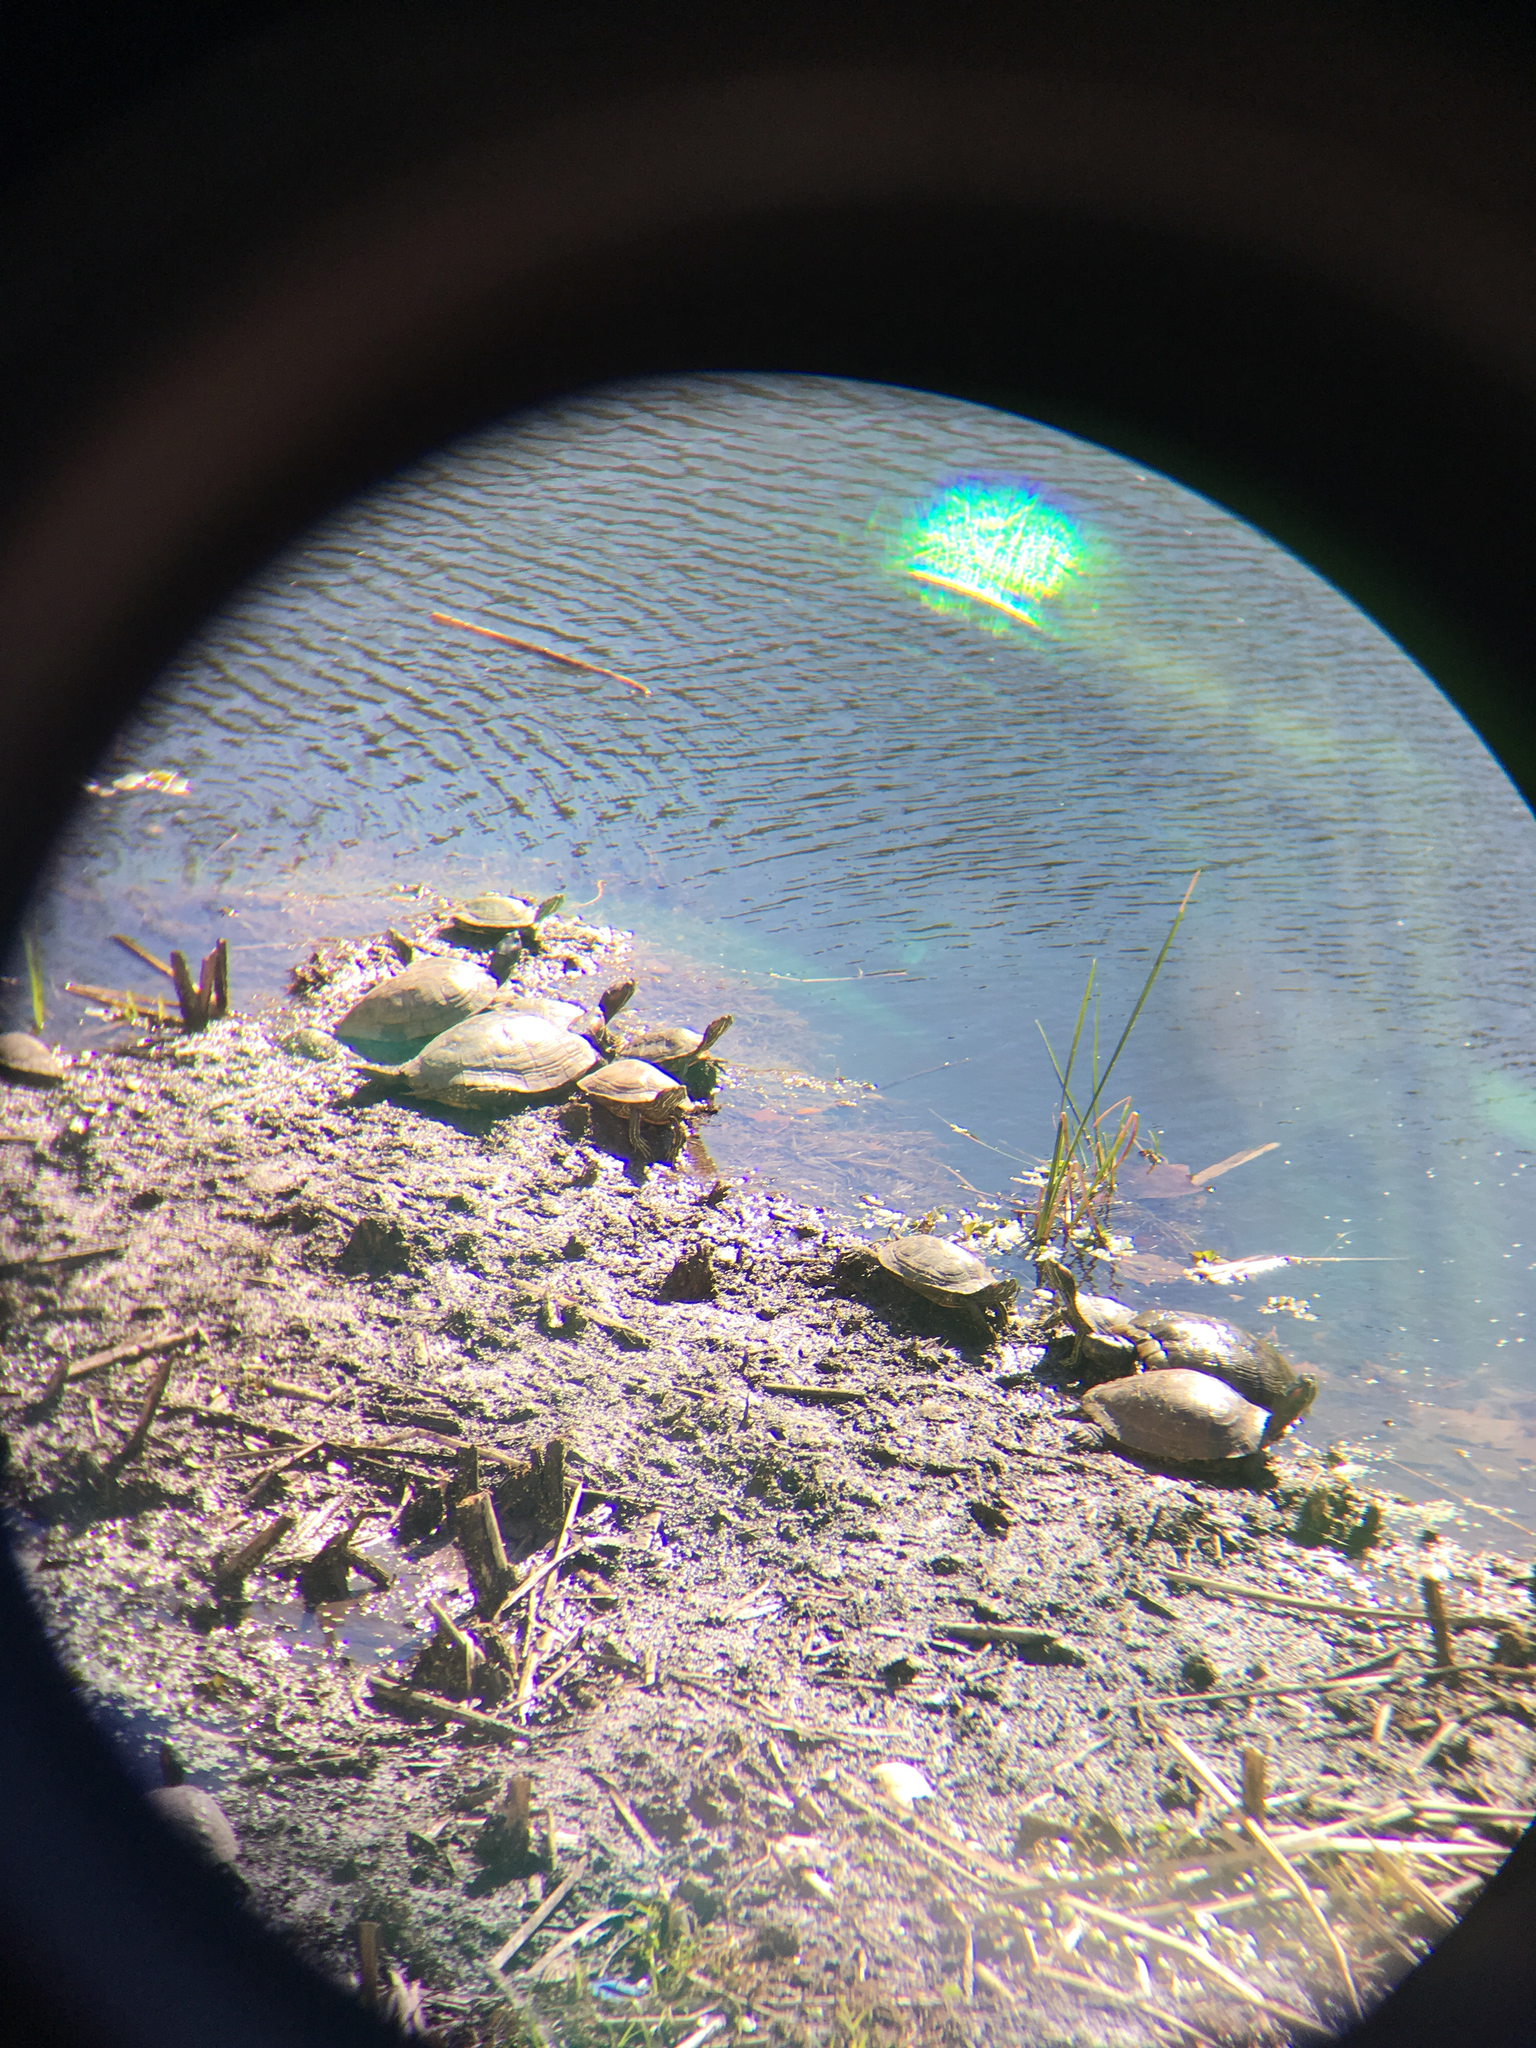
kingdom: Animalia
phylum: Chordata
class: Testudines
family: Emydidae
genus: Trachemys
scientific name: Trachemys scripta
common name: Slider
